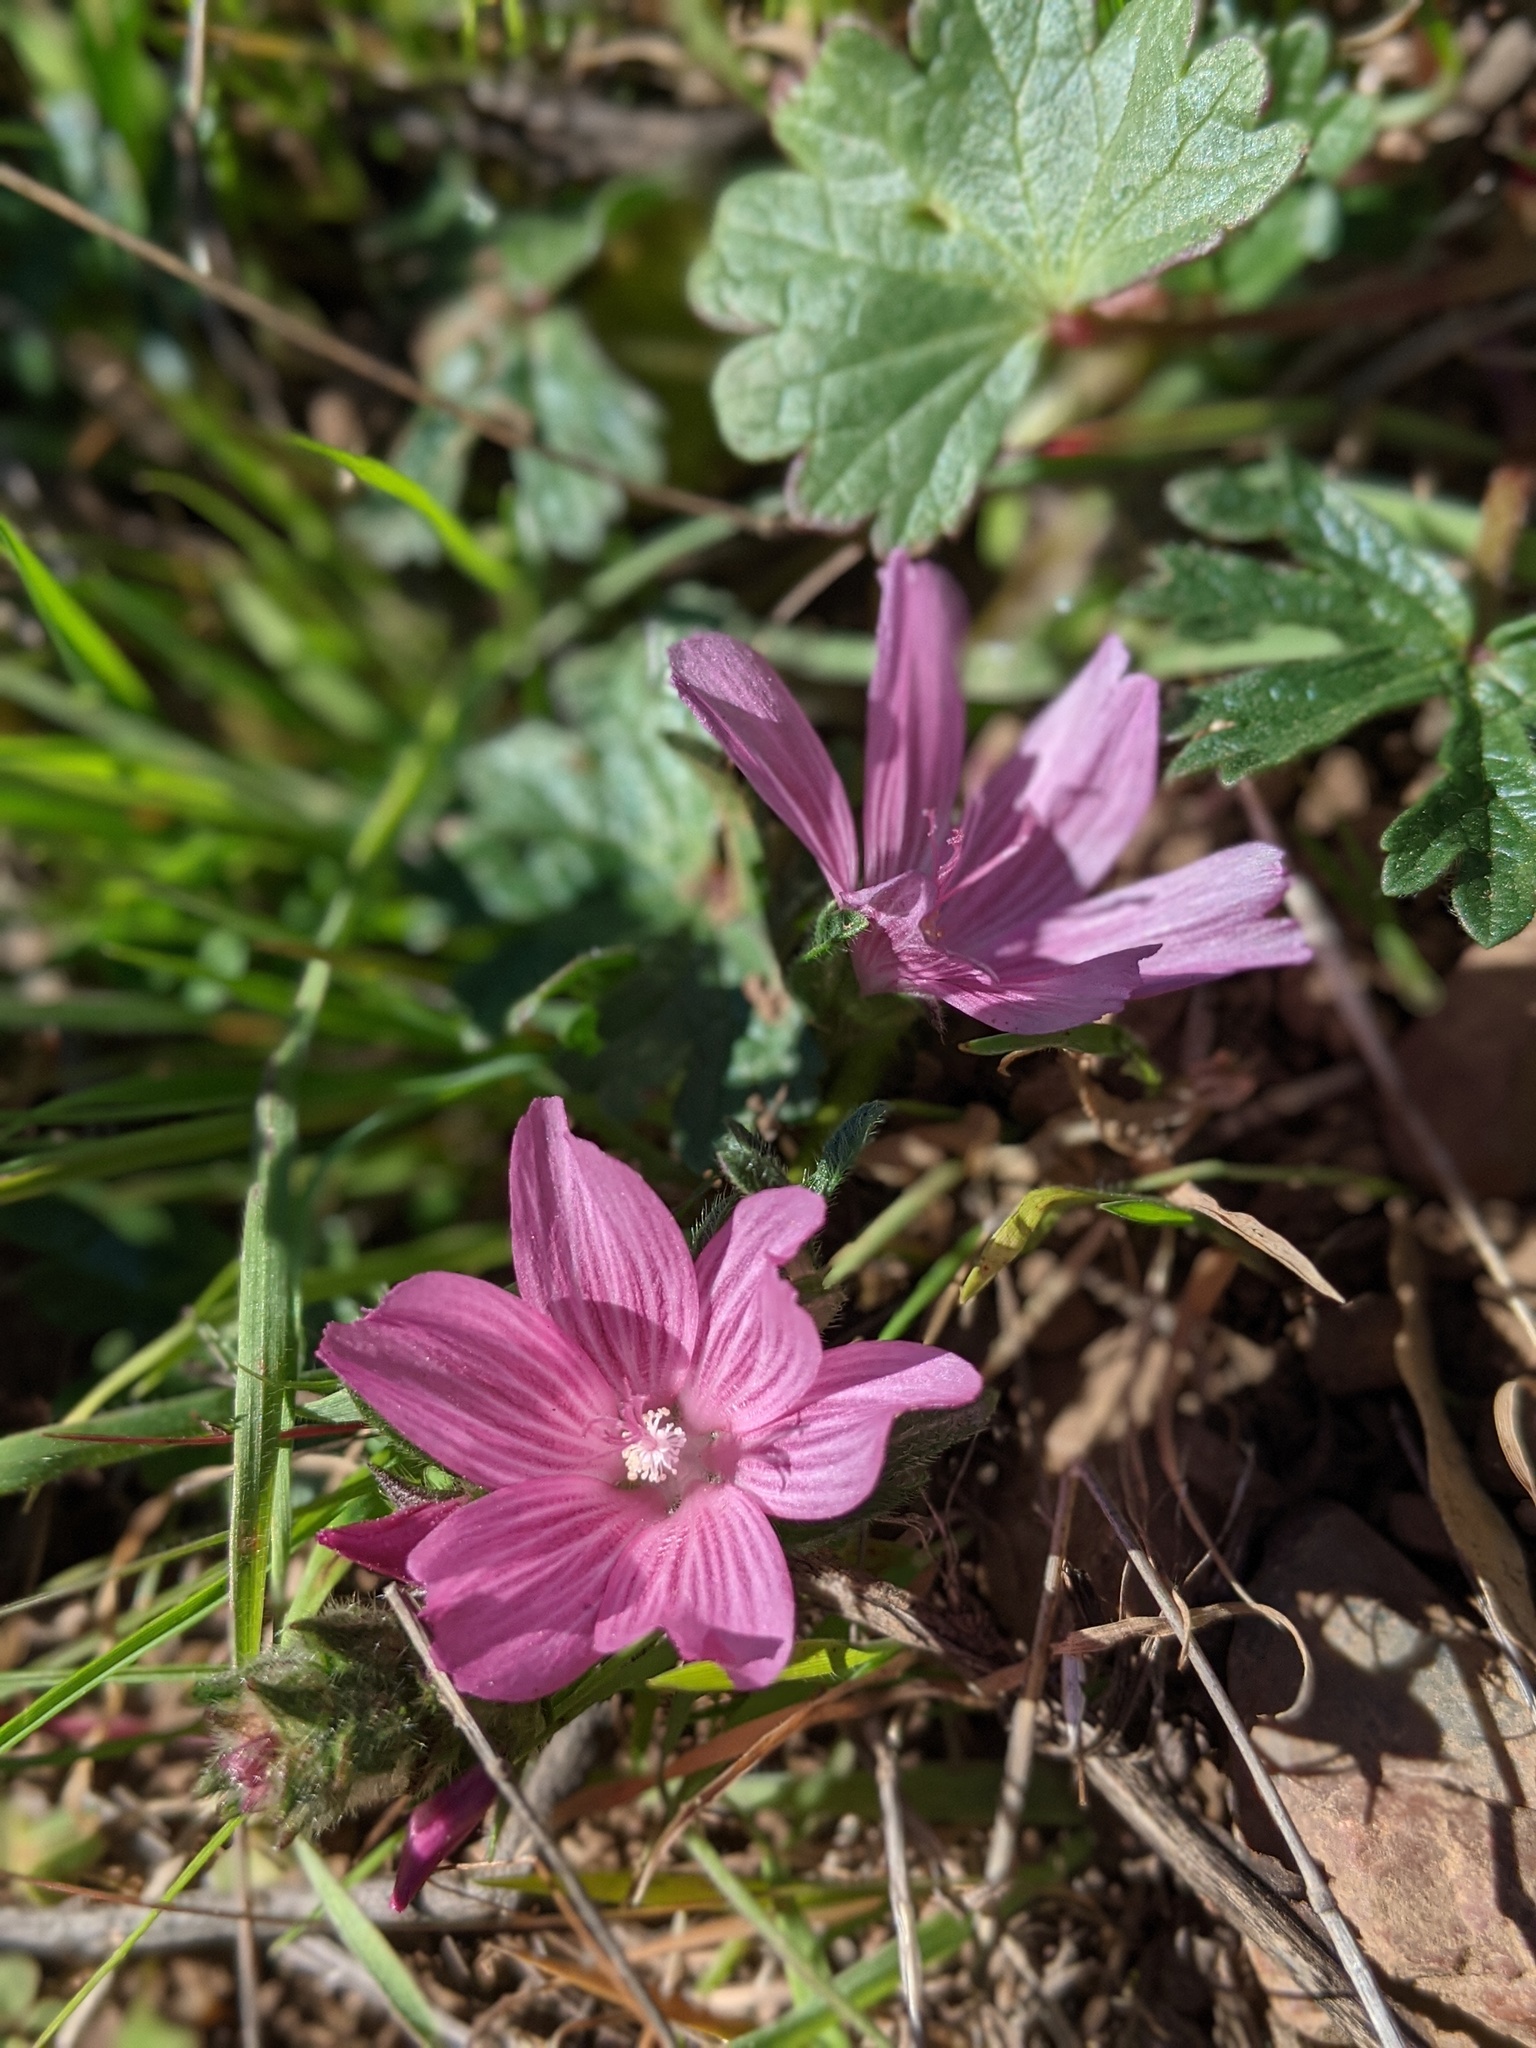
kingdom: Plantae
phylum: Tracheophyta
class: Magnoliopsida
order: Malvales
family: Malvaceae
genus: Sidalcea
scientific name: Sidalcea malviflora
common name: Greek mallow
